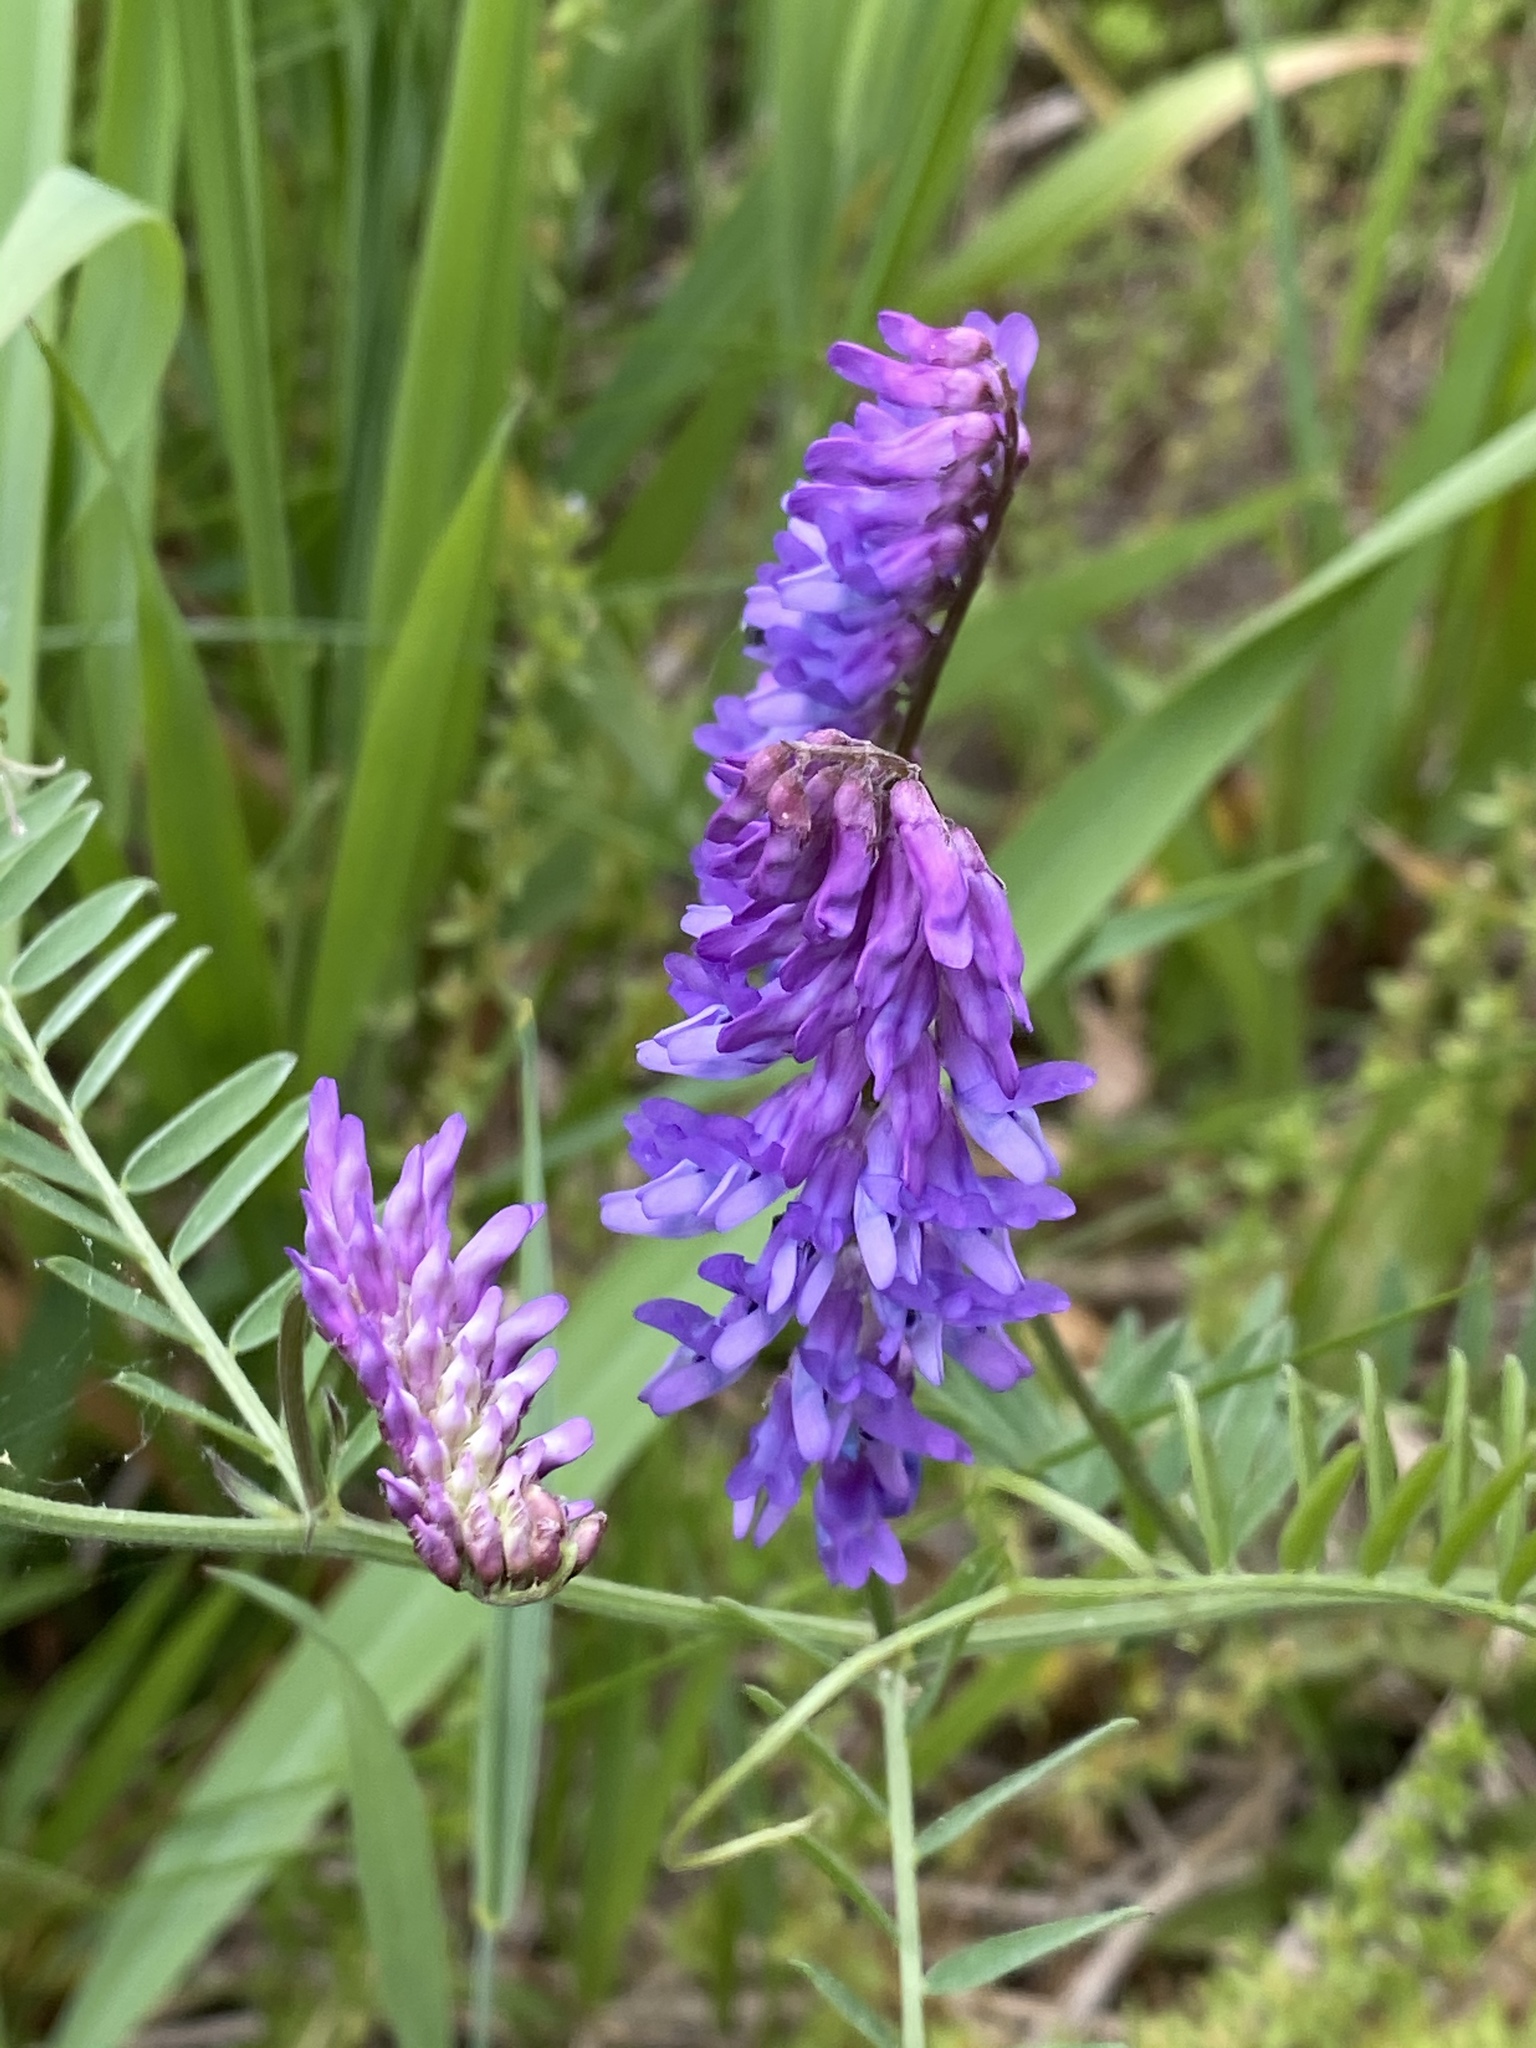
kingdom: Plantae
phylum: Tracheophyta
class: Magnoliopsida
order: Fabales
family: Fabaceae
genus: Vicia
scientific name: Vicia cracca
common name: Bird vetch
